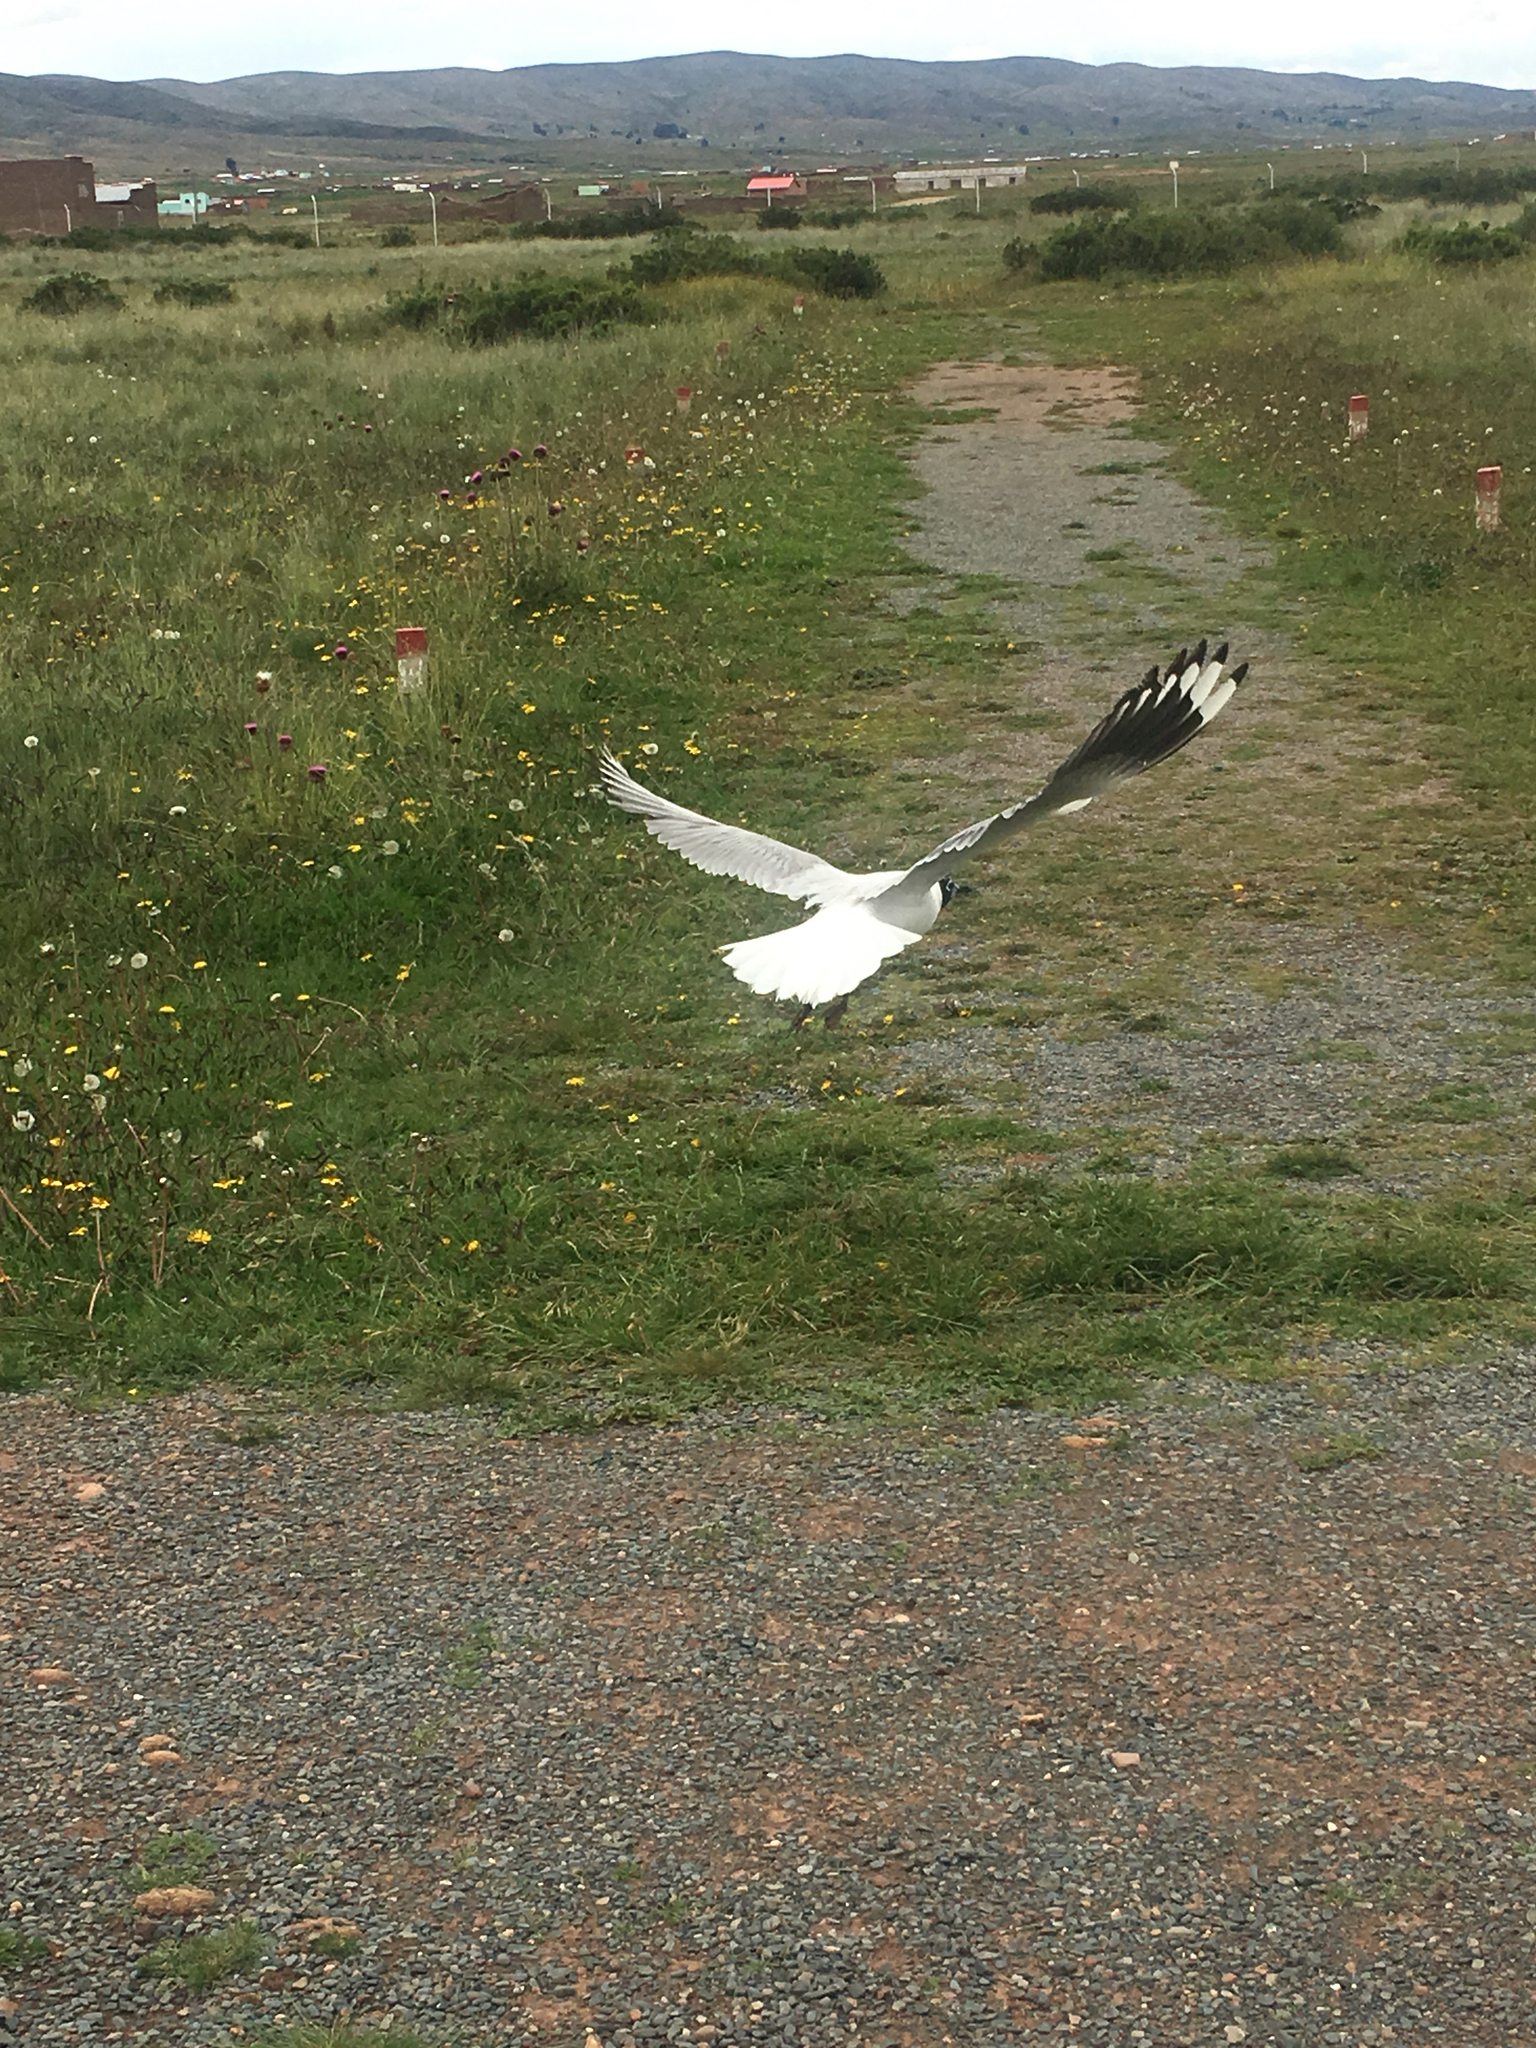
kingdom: Animalia
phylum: Chordata
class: Aves
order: Charadriiformes
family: Laridae
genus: Chroicocephalus
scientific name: Chroicocephalus serranus
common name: Andean gull
